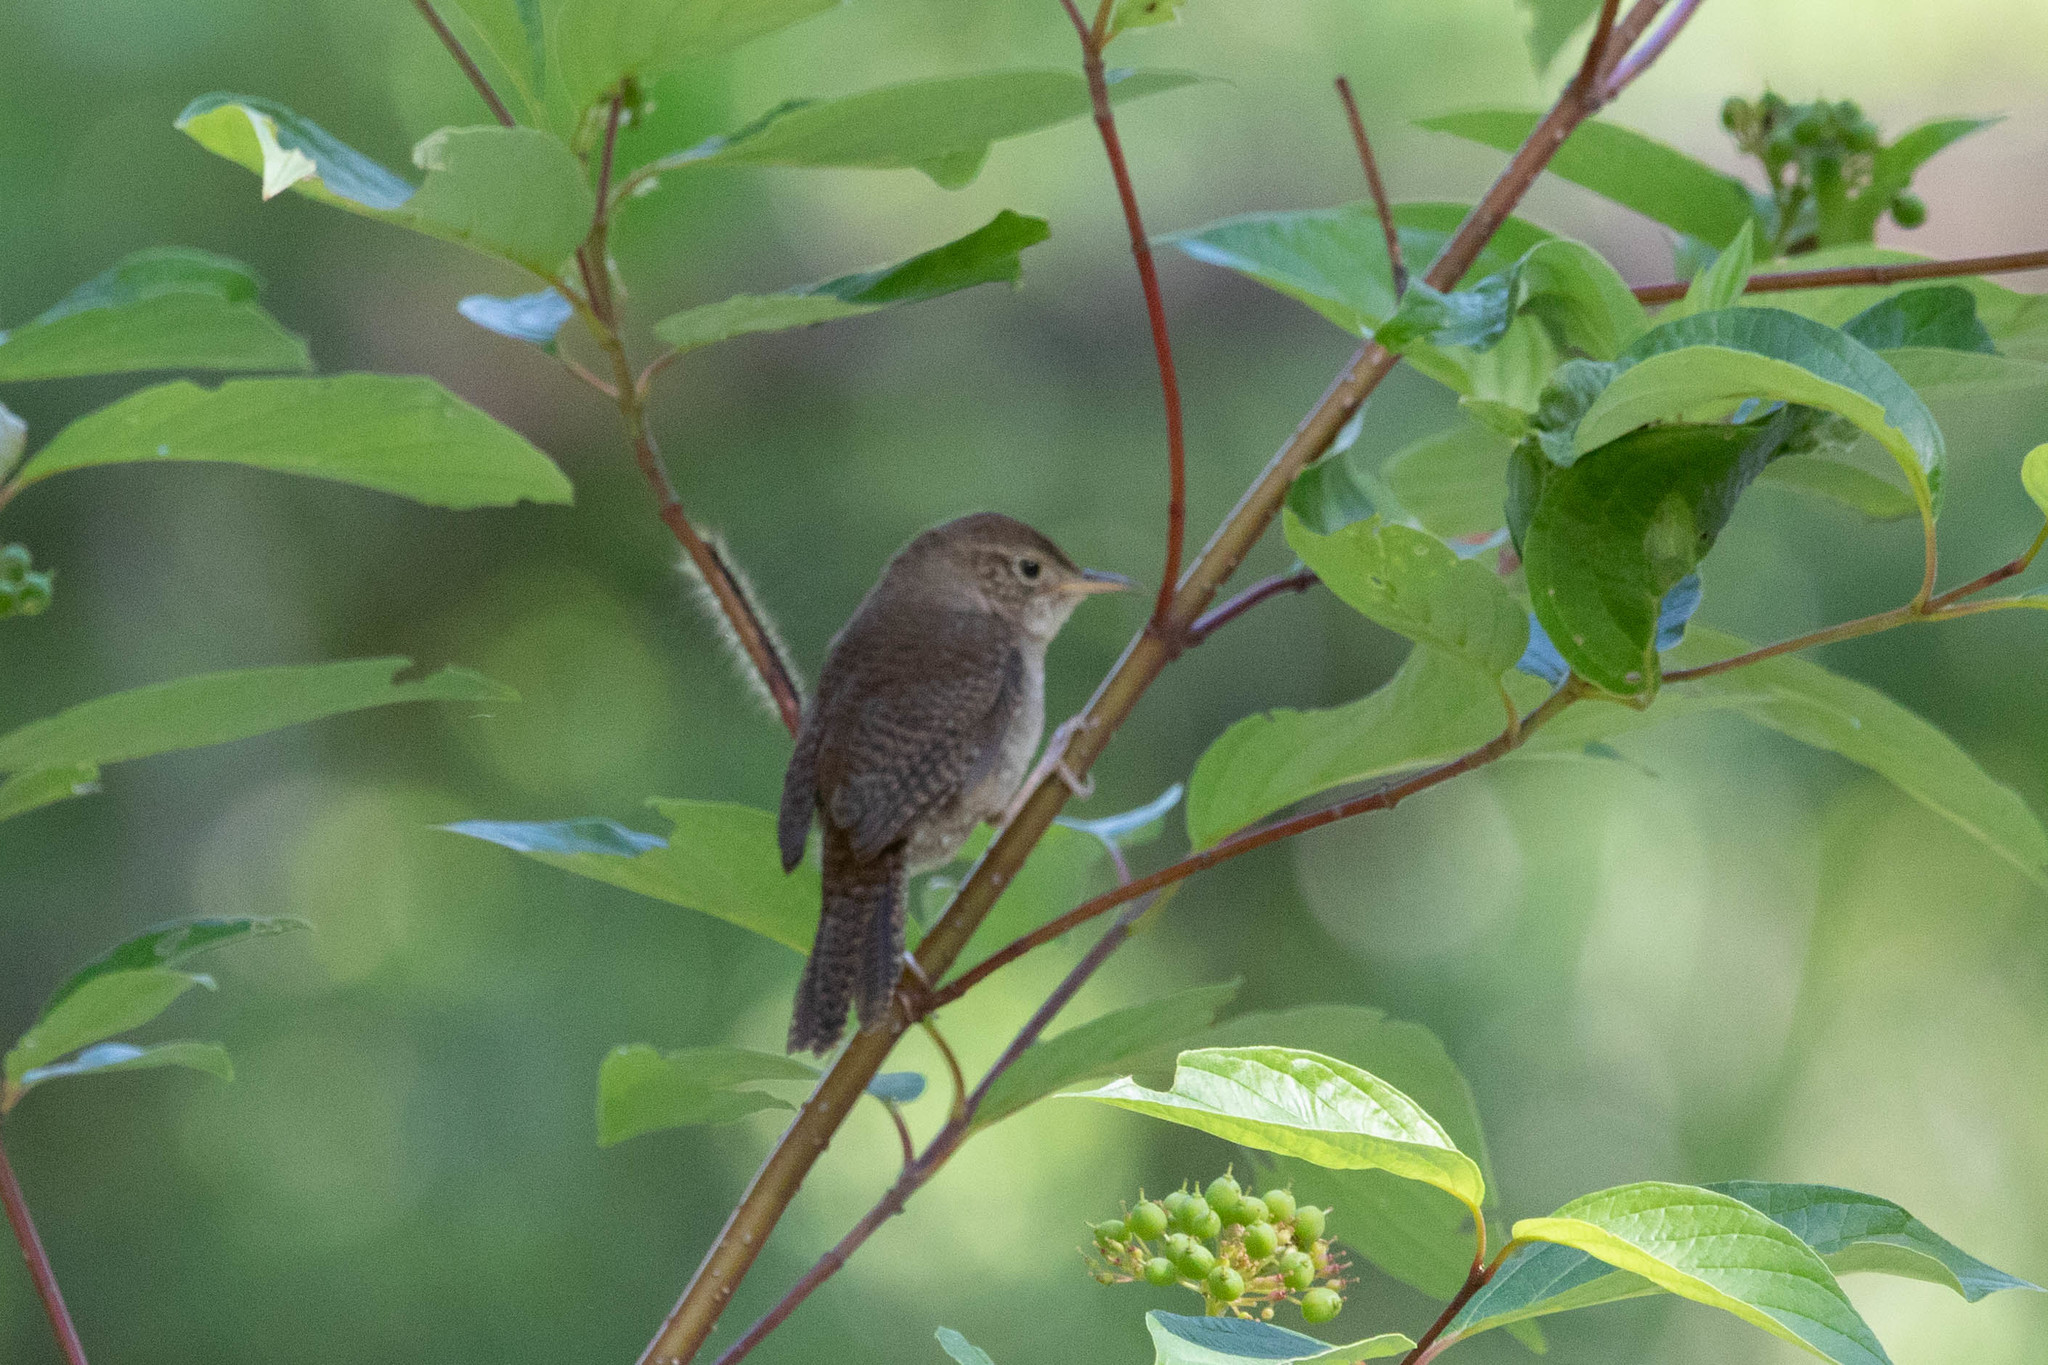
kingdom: Animalia
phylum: Chordata
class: Aves
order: Passeriformes
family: Troglodytidae
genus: Troglodytes
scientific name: Troglodytes aedon
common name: House wren
